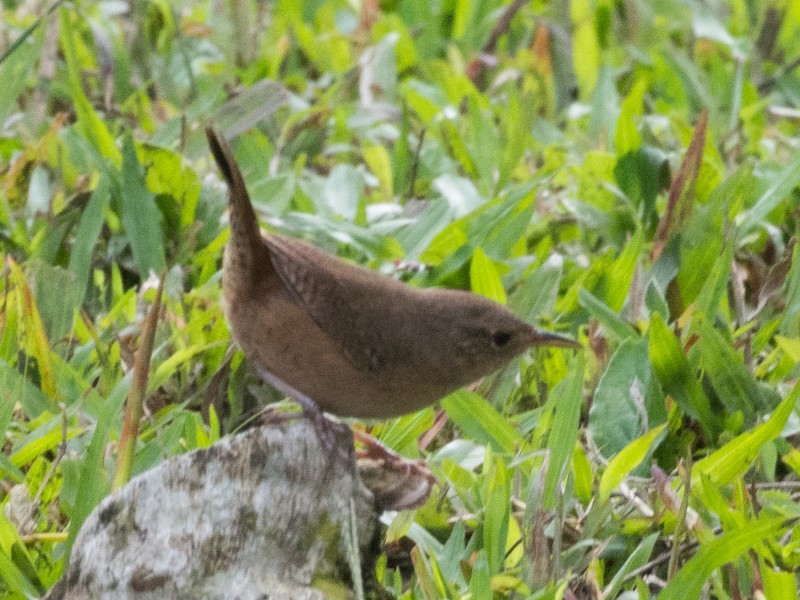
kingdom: Animalia
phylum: Chordata
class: Aves
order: Passeriformes
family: Troglodytidae
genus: Troglodytes
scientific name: Troglodytes aedon
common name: House wren
